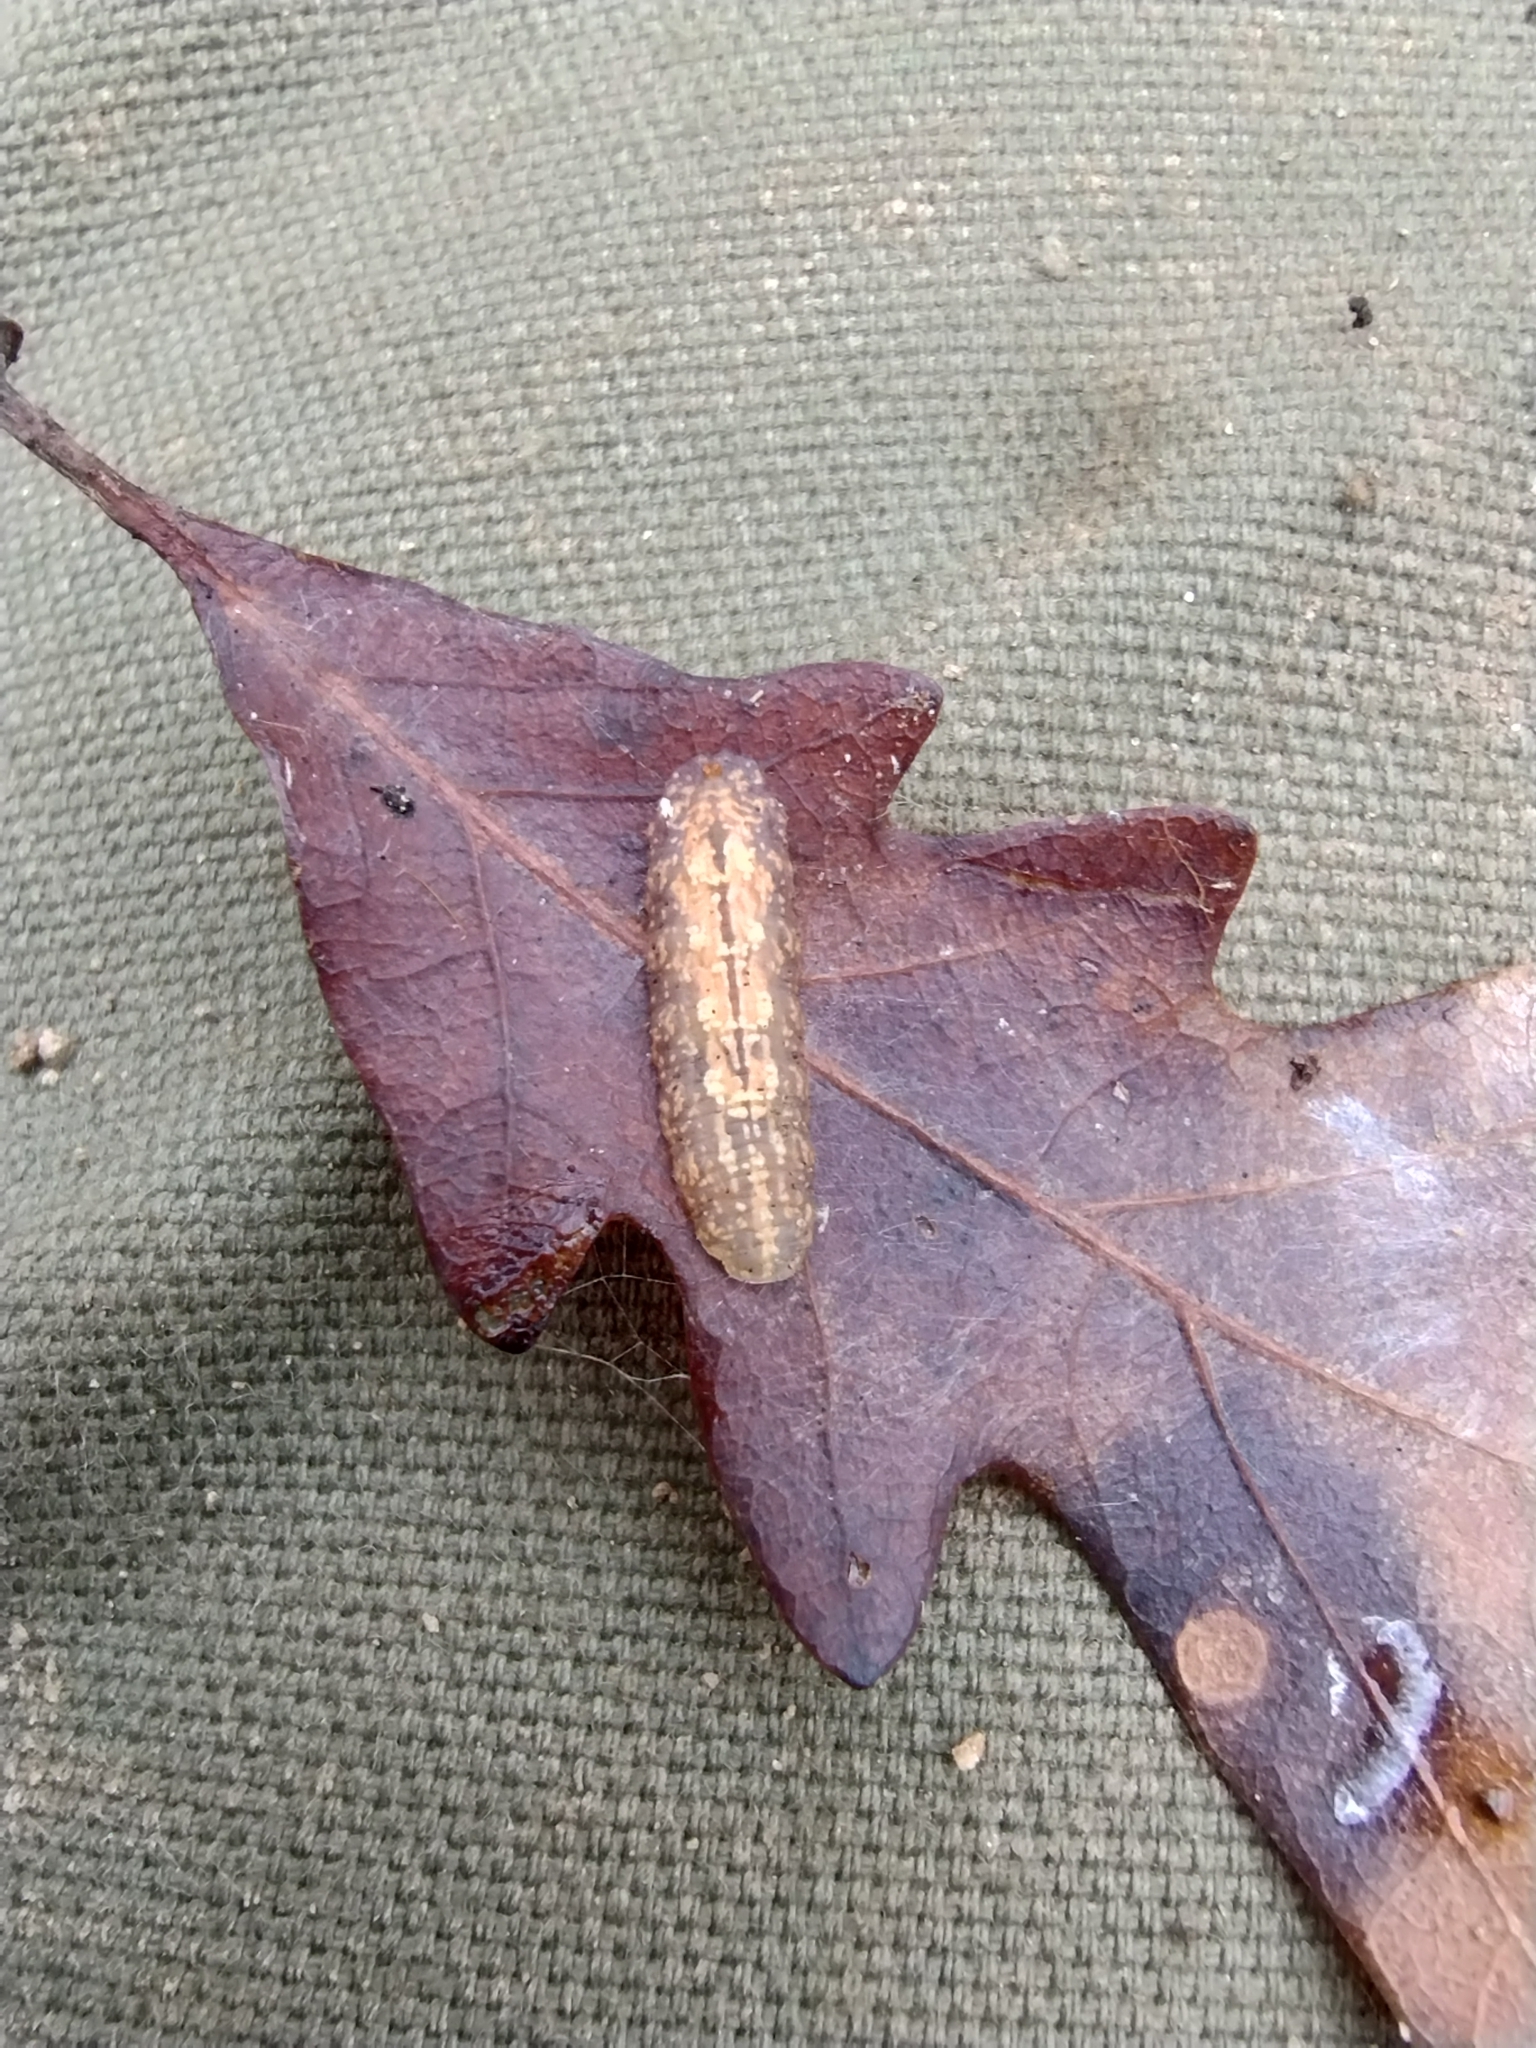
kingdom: Animalia
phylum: Arthropoda
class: Insecta
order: Diptera
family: Syrphidae
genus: Syrphus
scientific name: Syrphus
